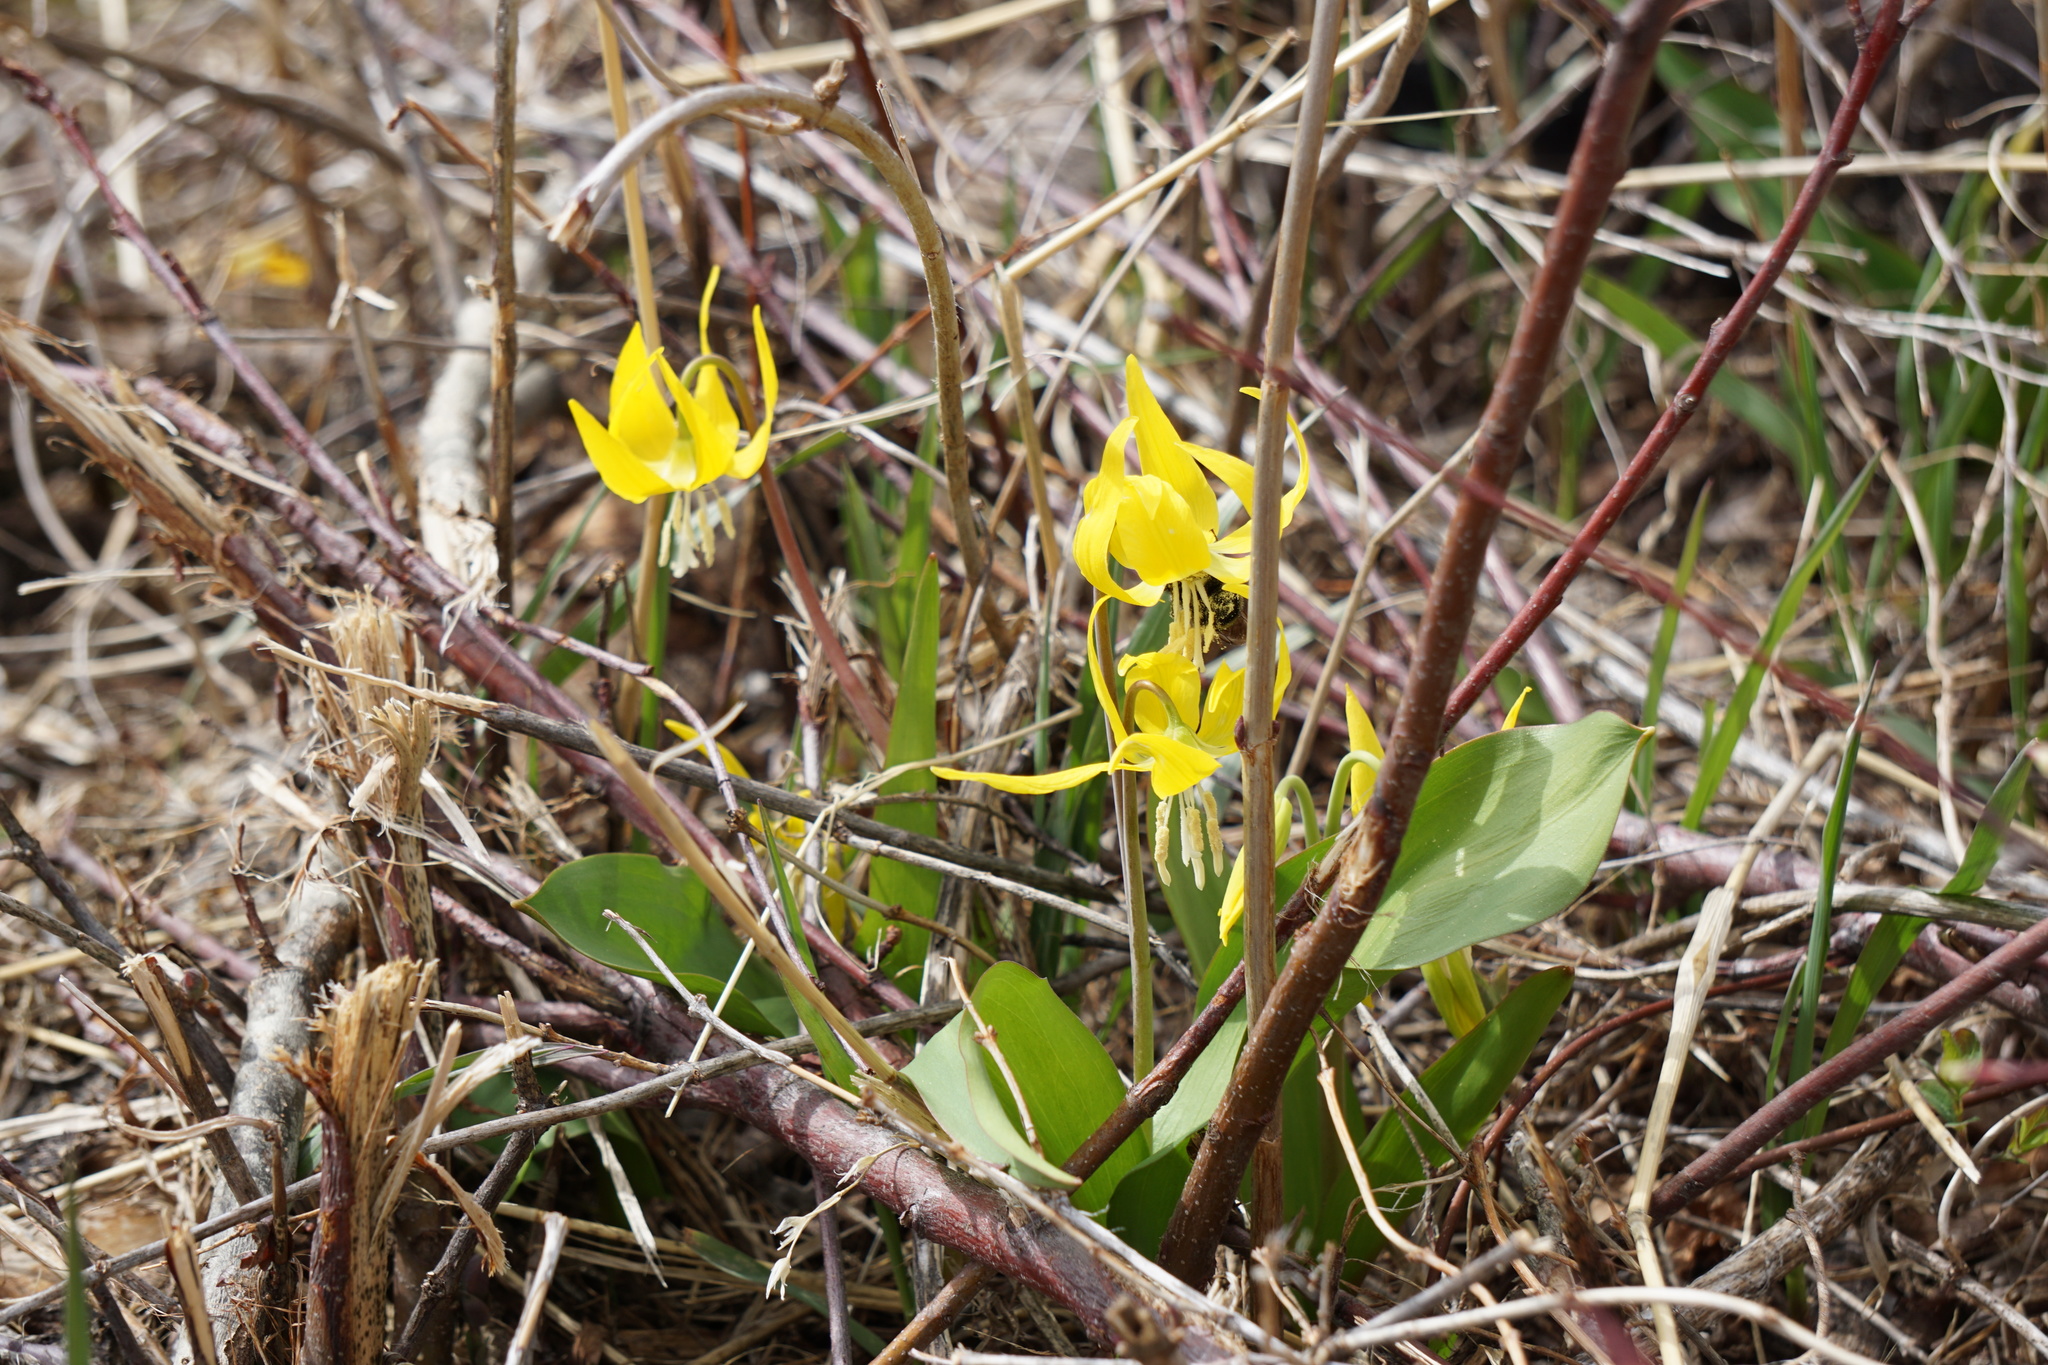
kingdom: Plantae
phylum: Tracheophyta
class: Liliopsida
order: Liliales
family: Liliaceae
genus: Erythronium
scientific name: Erythronium grandiflorum
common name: Avalanche-lily
